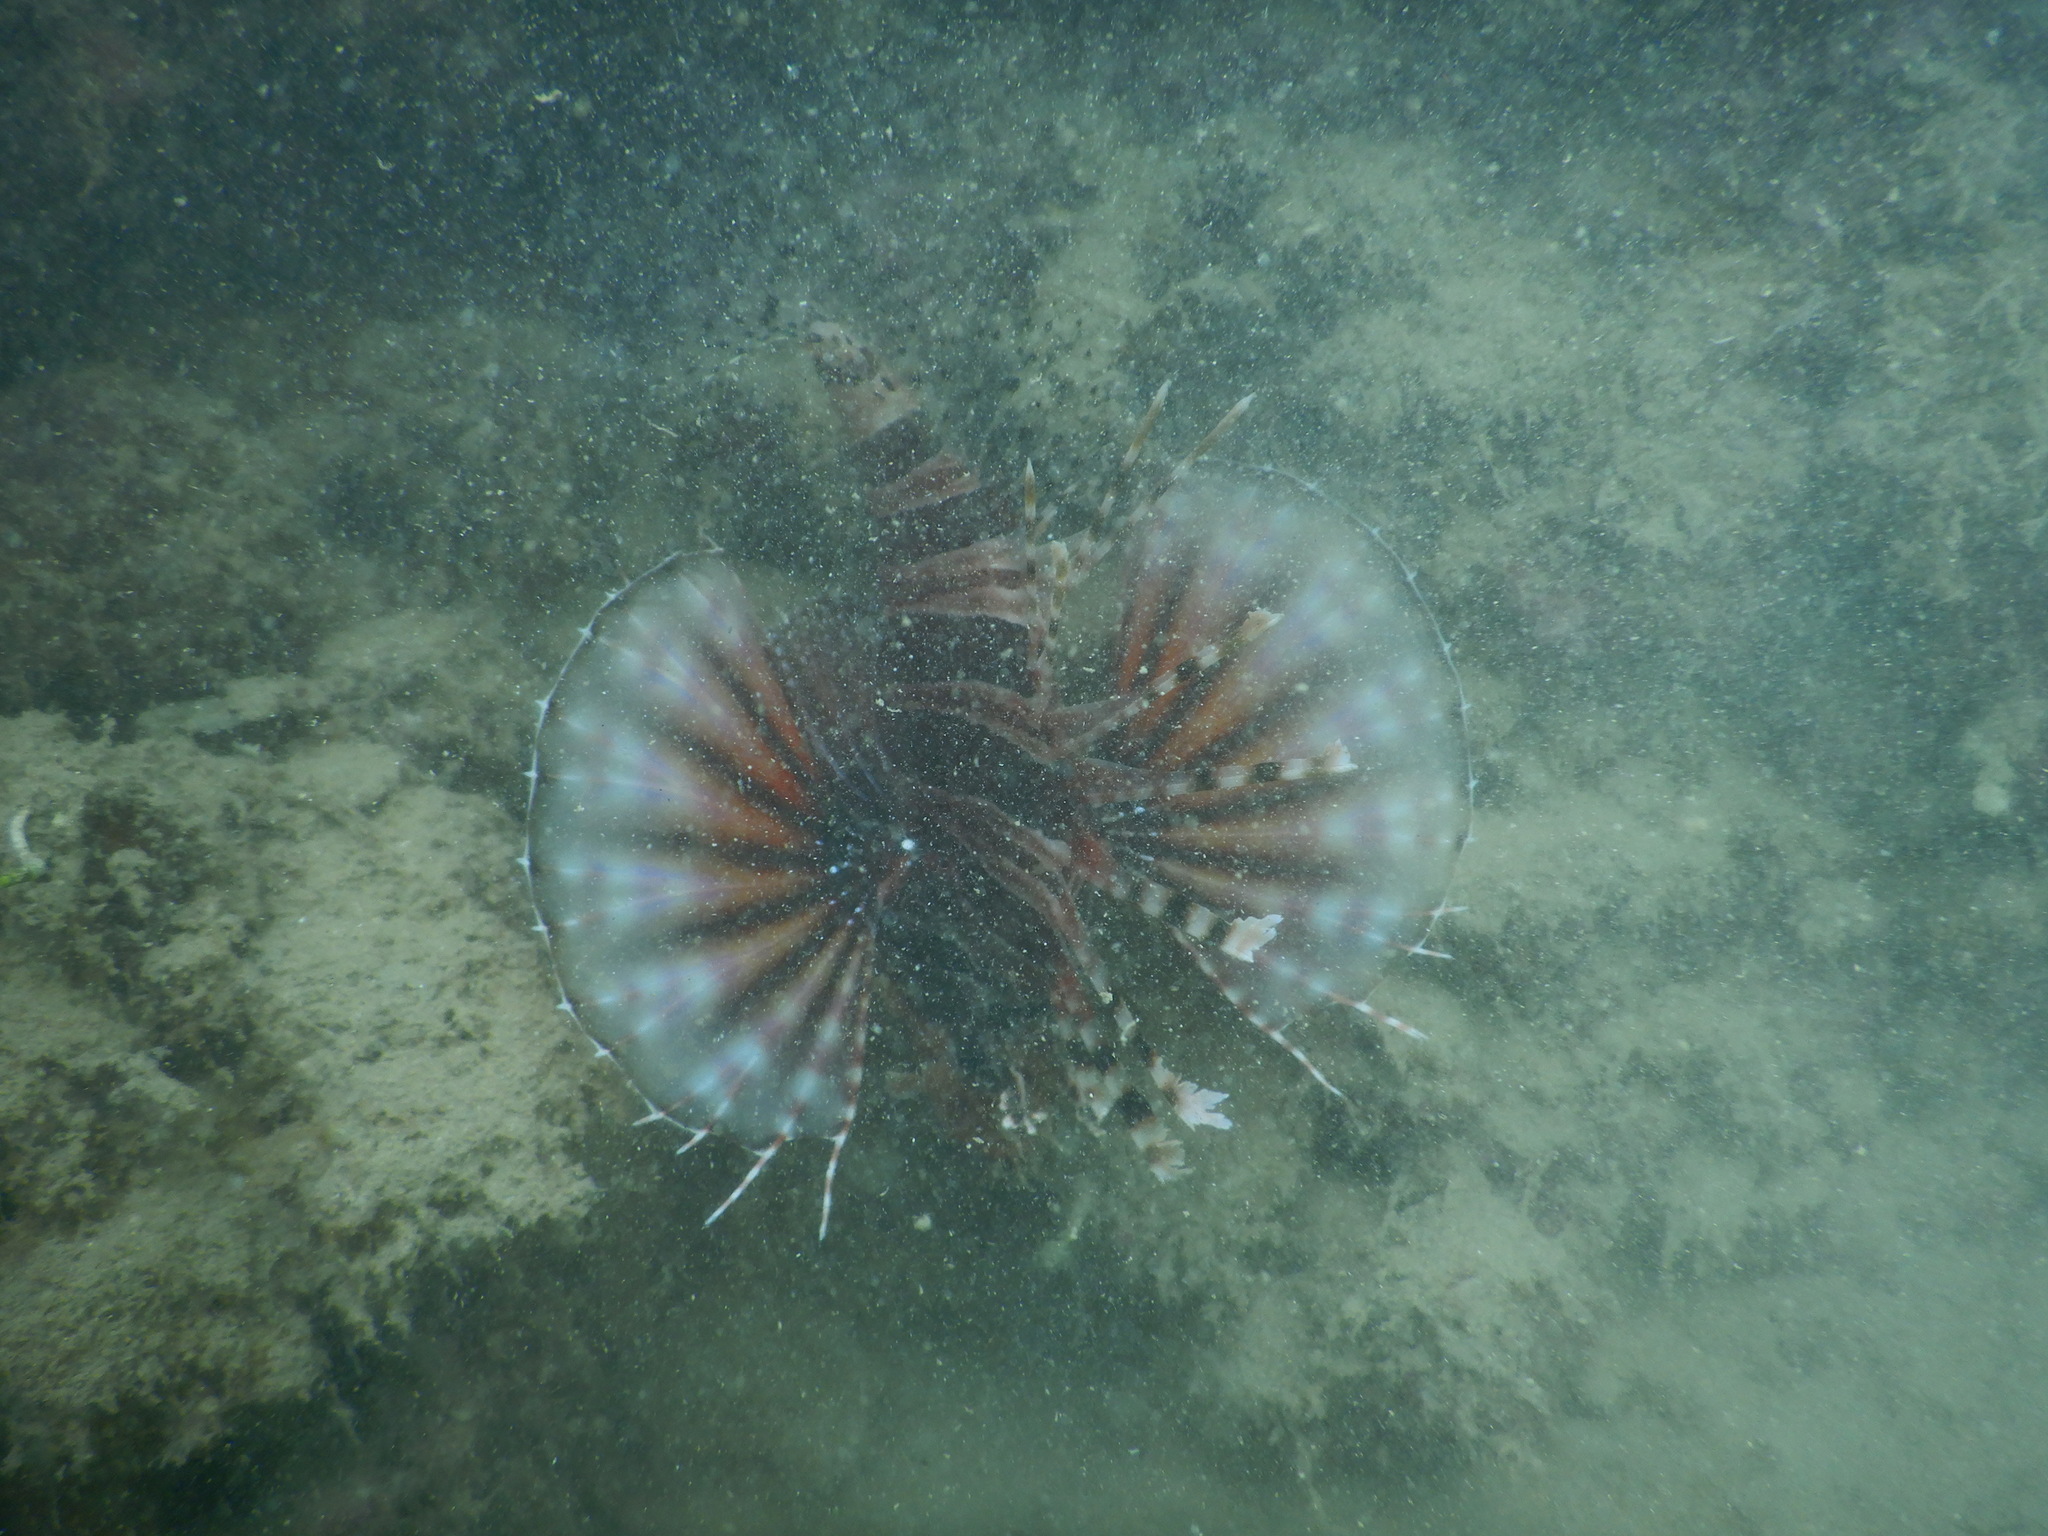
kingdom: Animalia
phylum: Chordata
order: Scorpaeniformes
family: Scorpaenidae
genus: Dendrochirus
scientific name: Dendrochirus zebra
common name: Zebra lionfish
